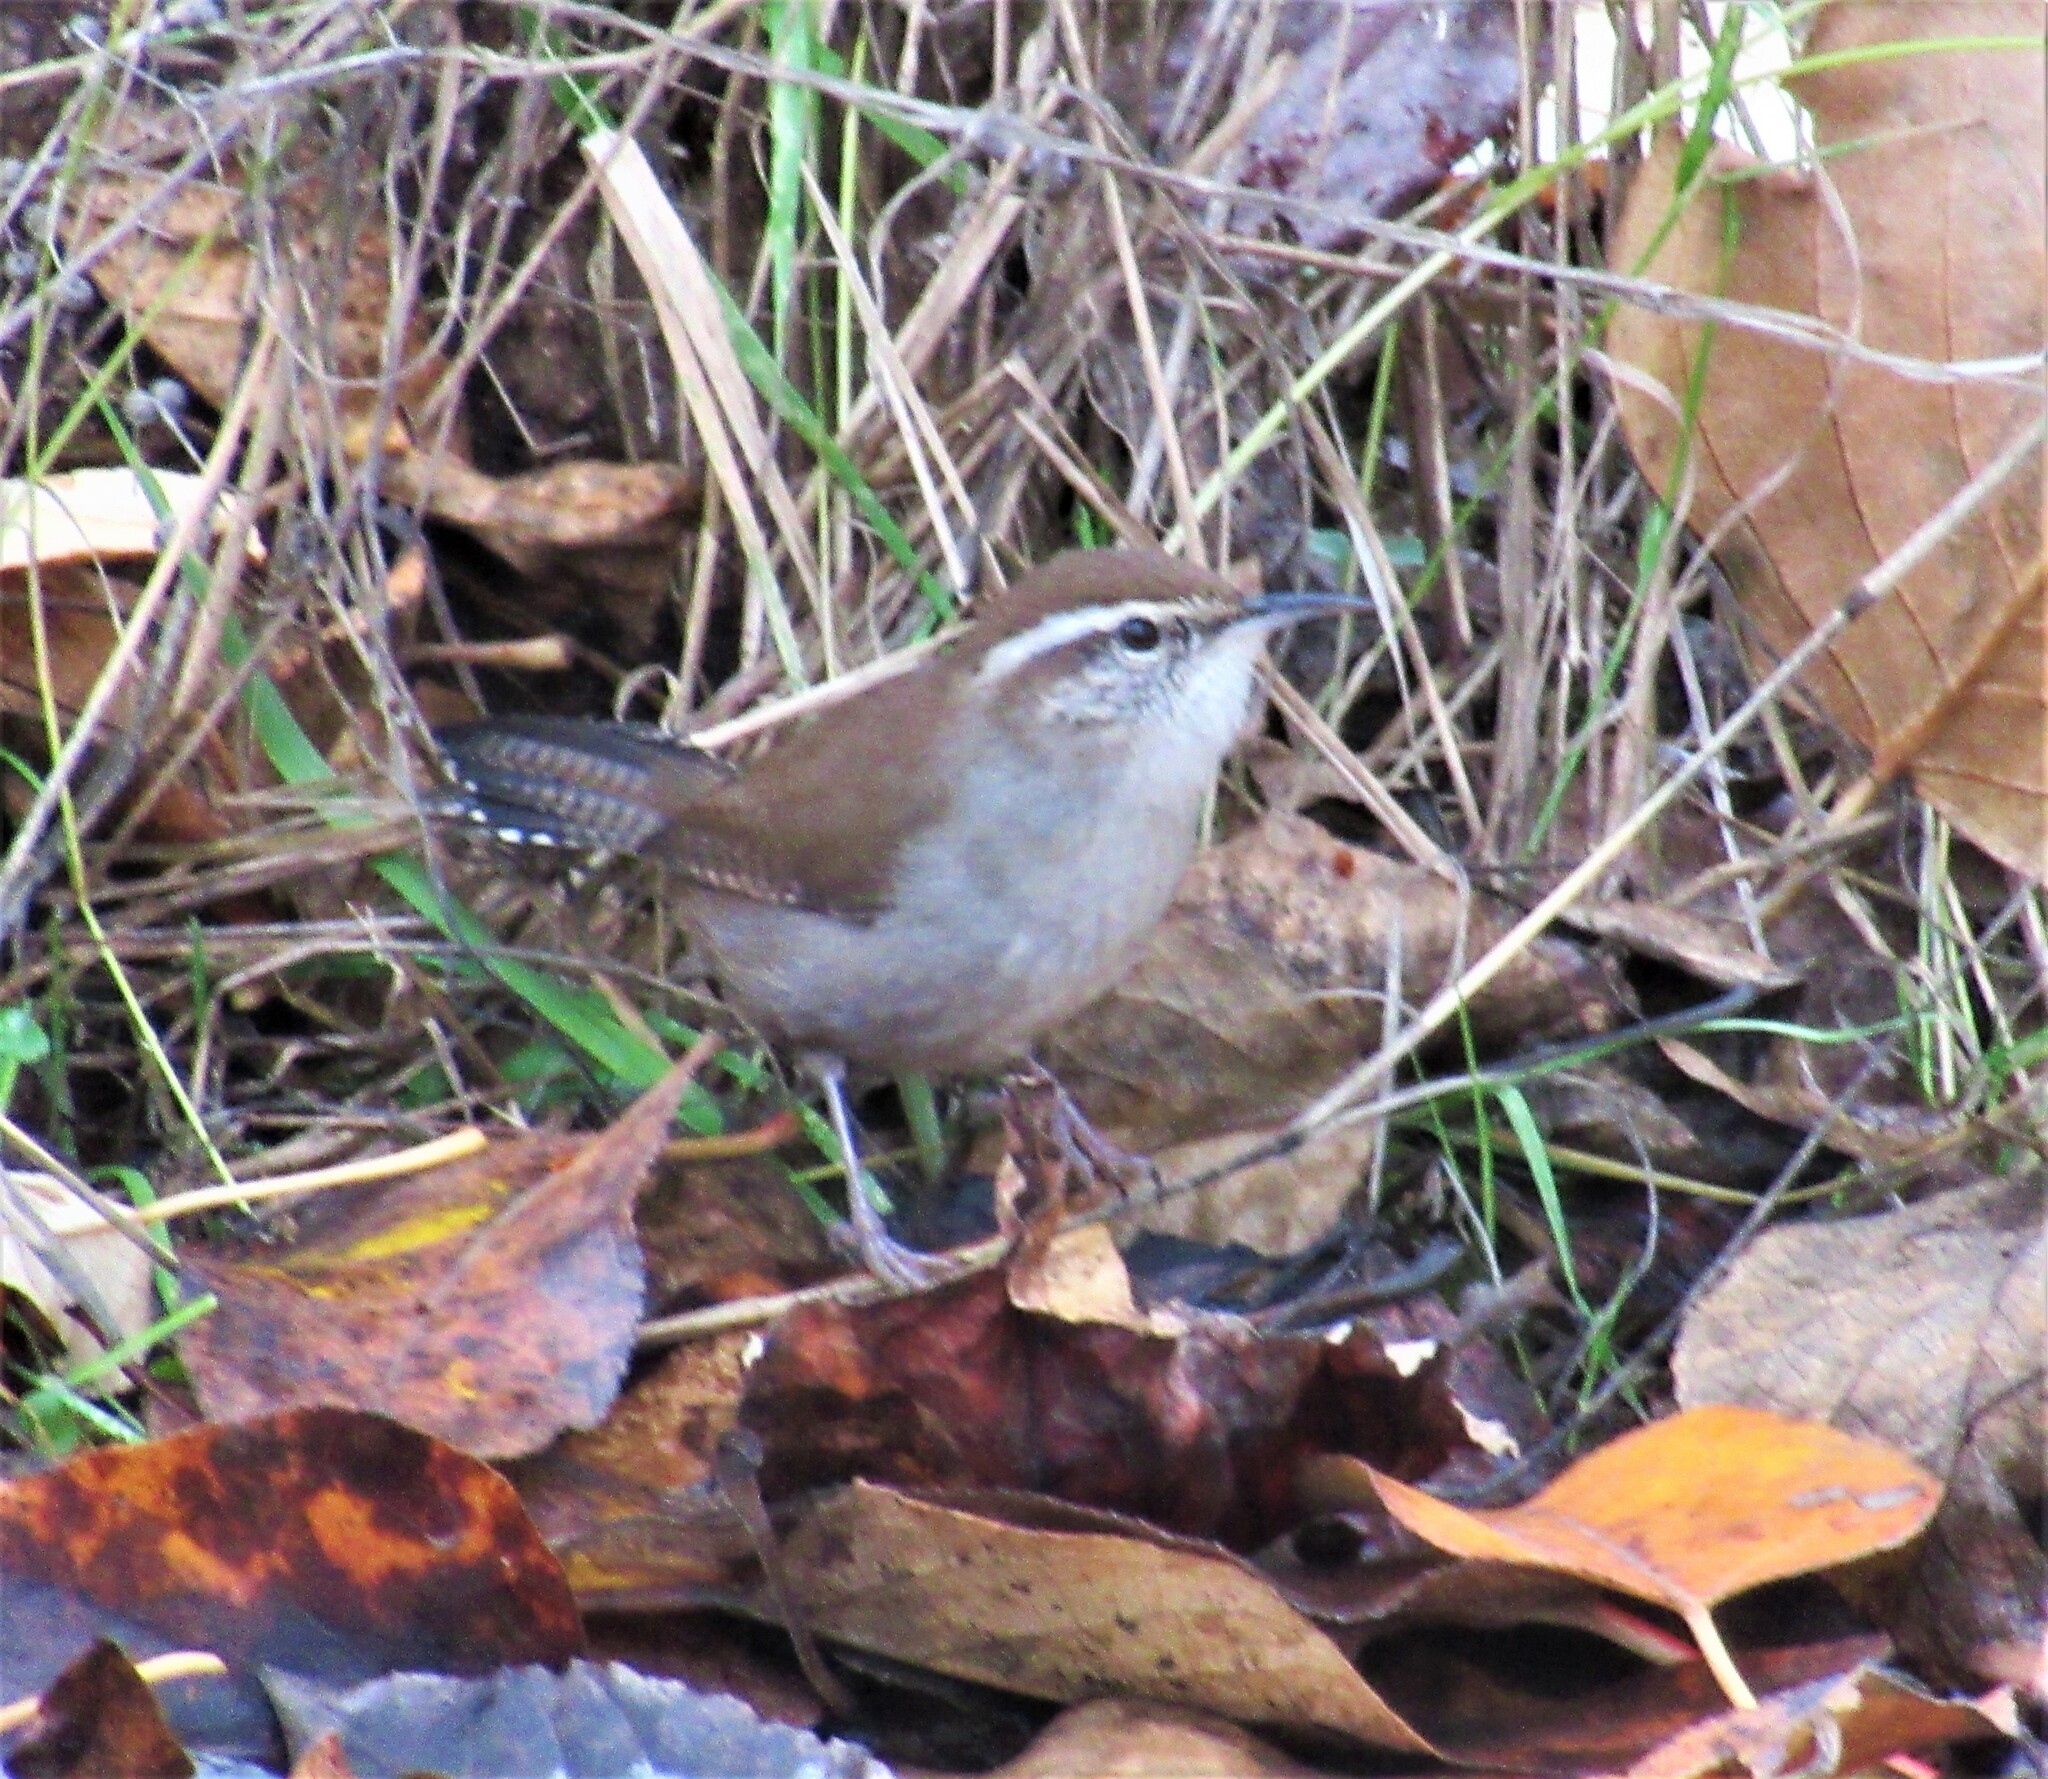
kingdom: Animalia
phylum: Chordata
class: Aves
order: Passeriformes
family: Troglodytidae
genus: Thryomanes
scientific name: Thryomanes bewickii
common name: Bewick's wren
